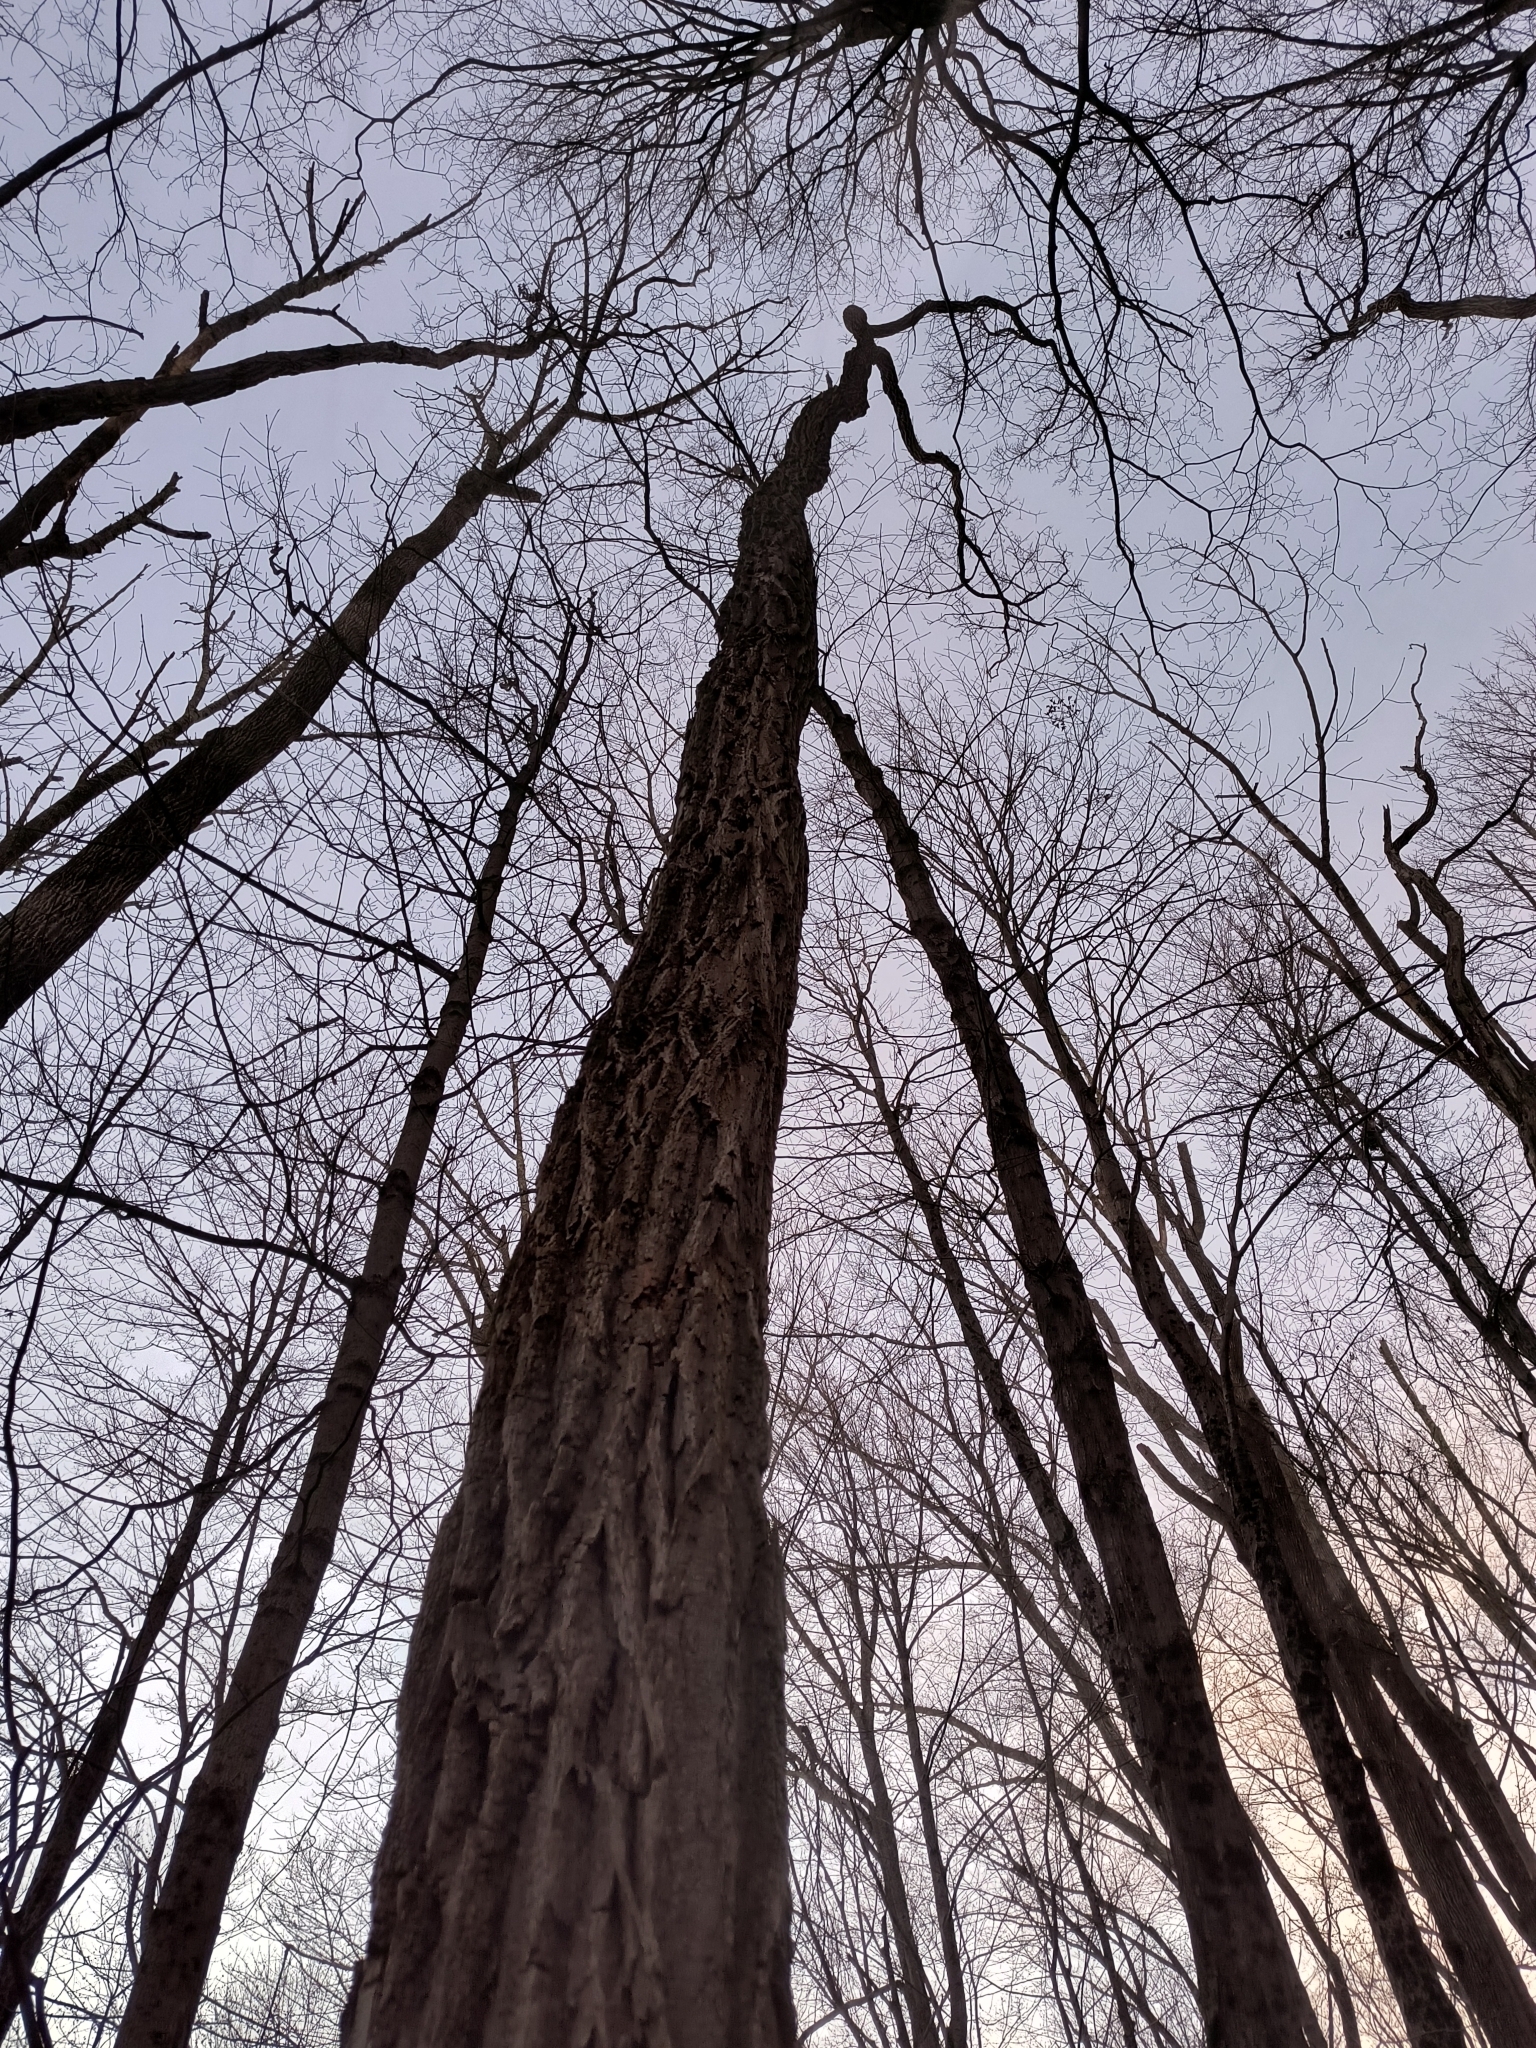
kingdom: Plantae
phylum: Tracheophyta
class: Magnoliopsida
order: Fabales
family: Fabaceae
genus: Robinia
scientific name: Robinia pseudoacacia
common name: Black locust
